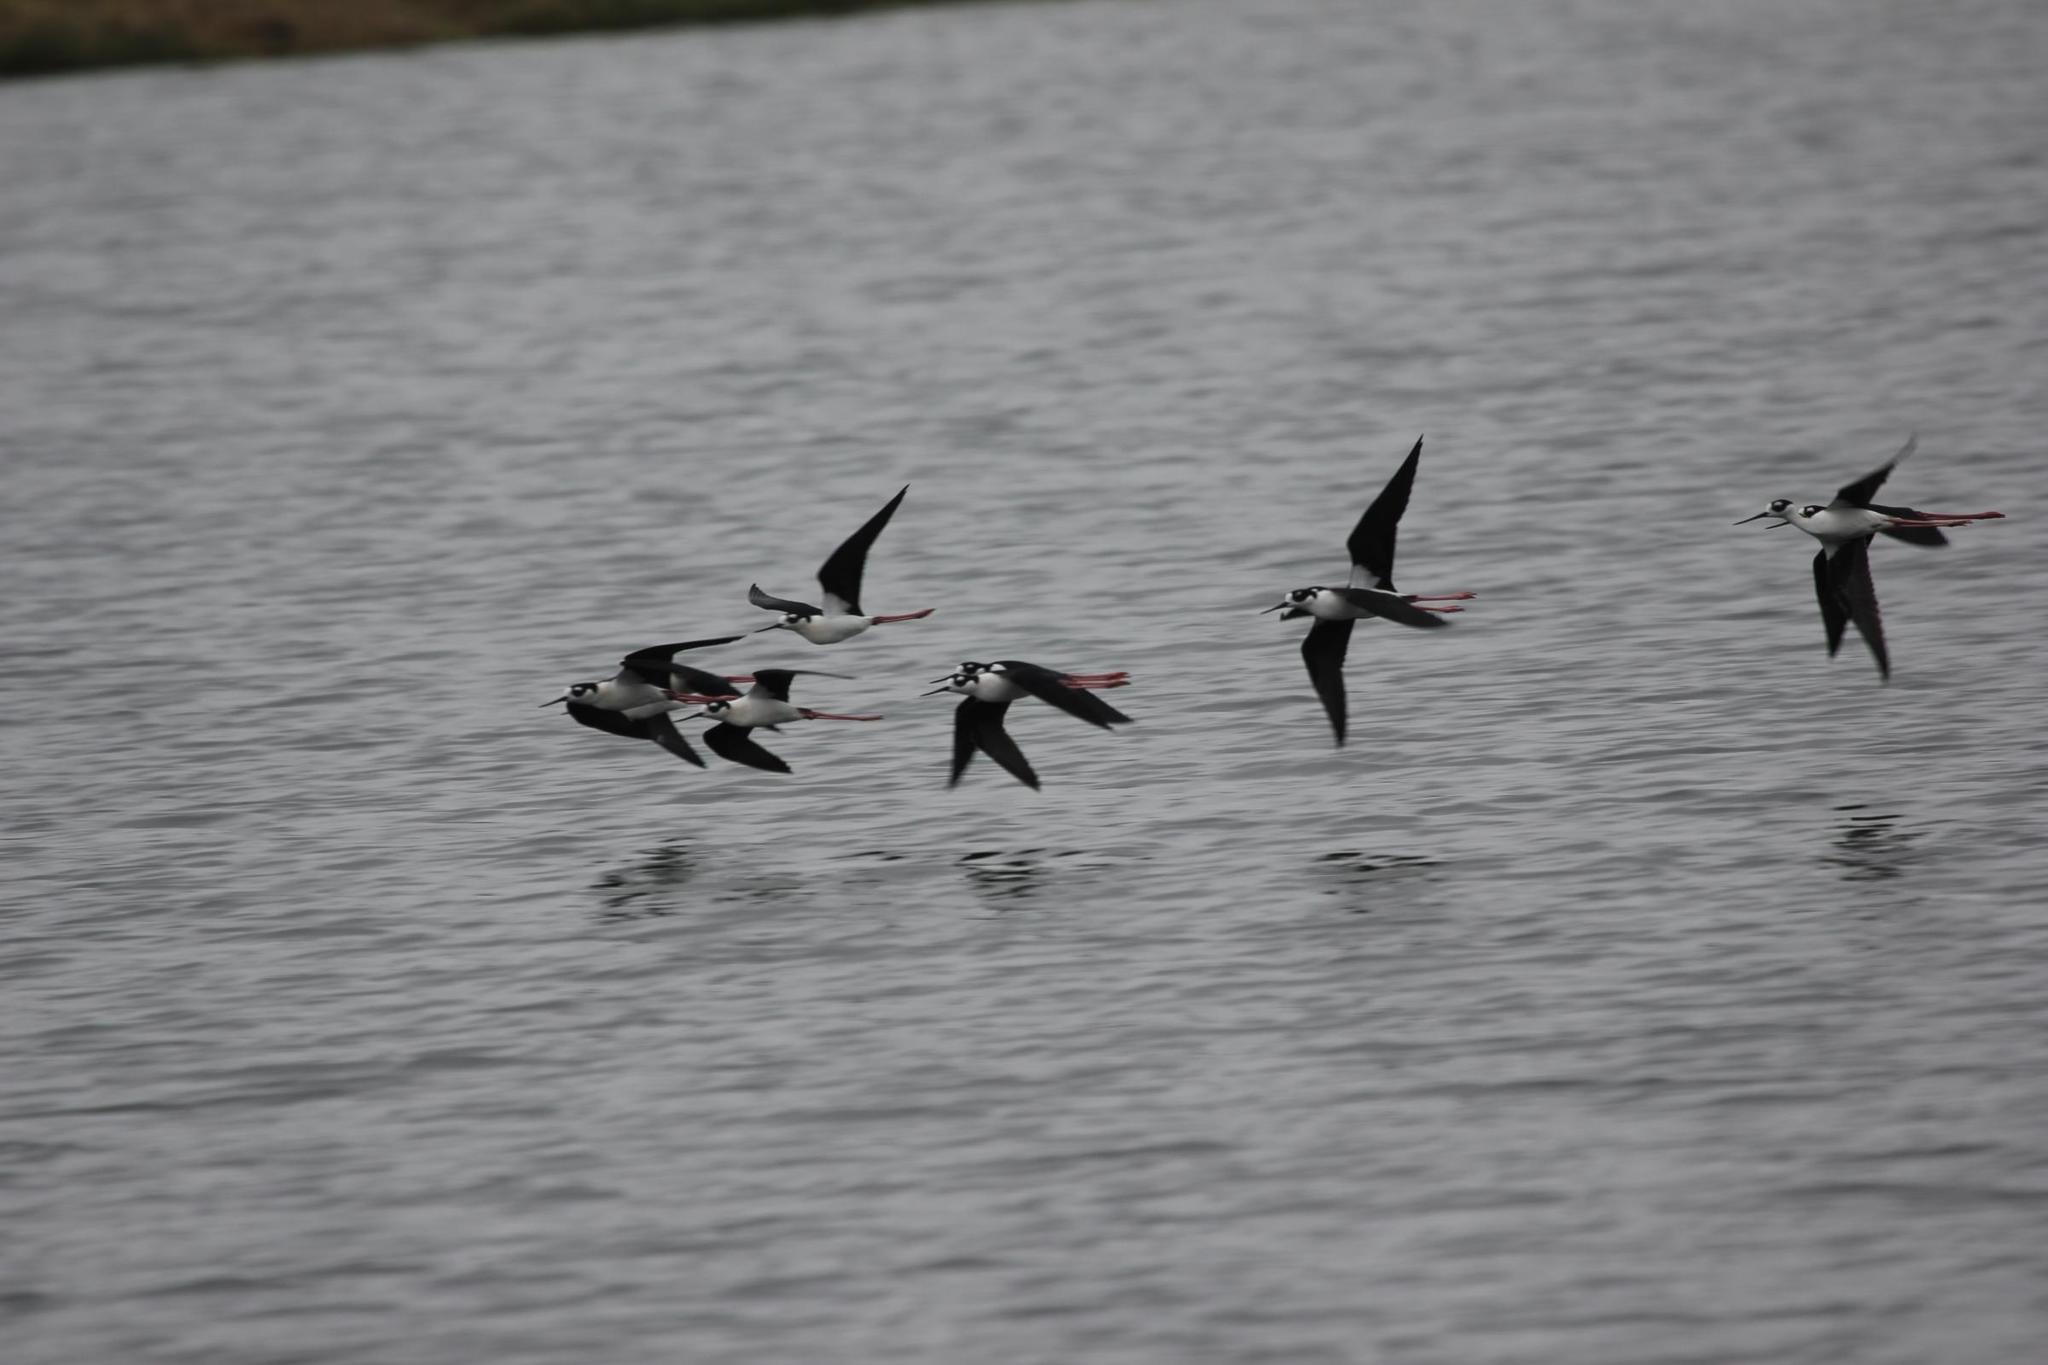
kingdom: Animalia
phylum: Chordata
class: Aves
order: Charadriiformes
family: Recurvirostridae
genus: Himantopus
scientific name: Himantopus mexicanus
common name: Black-necked stilt
